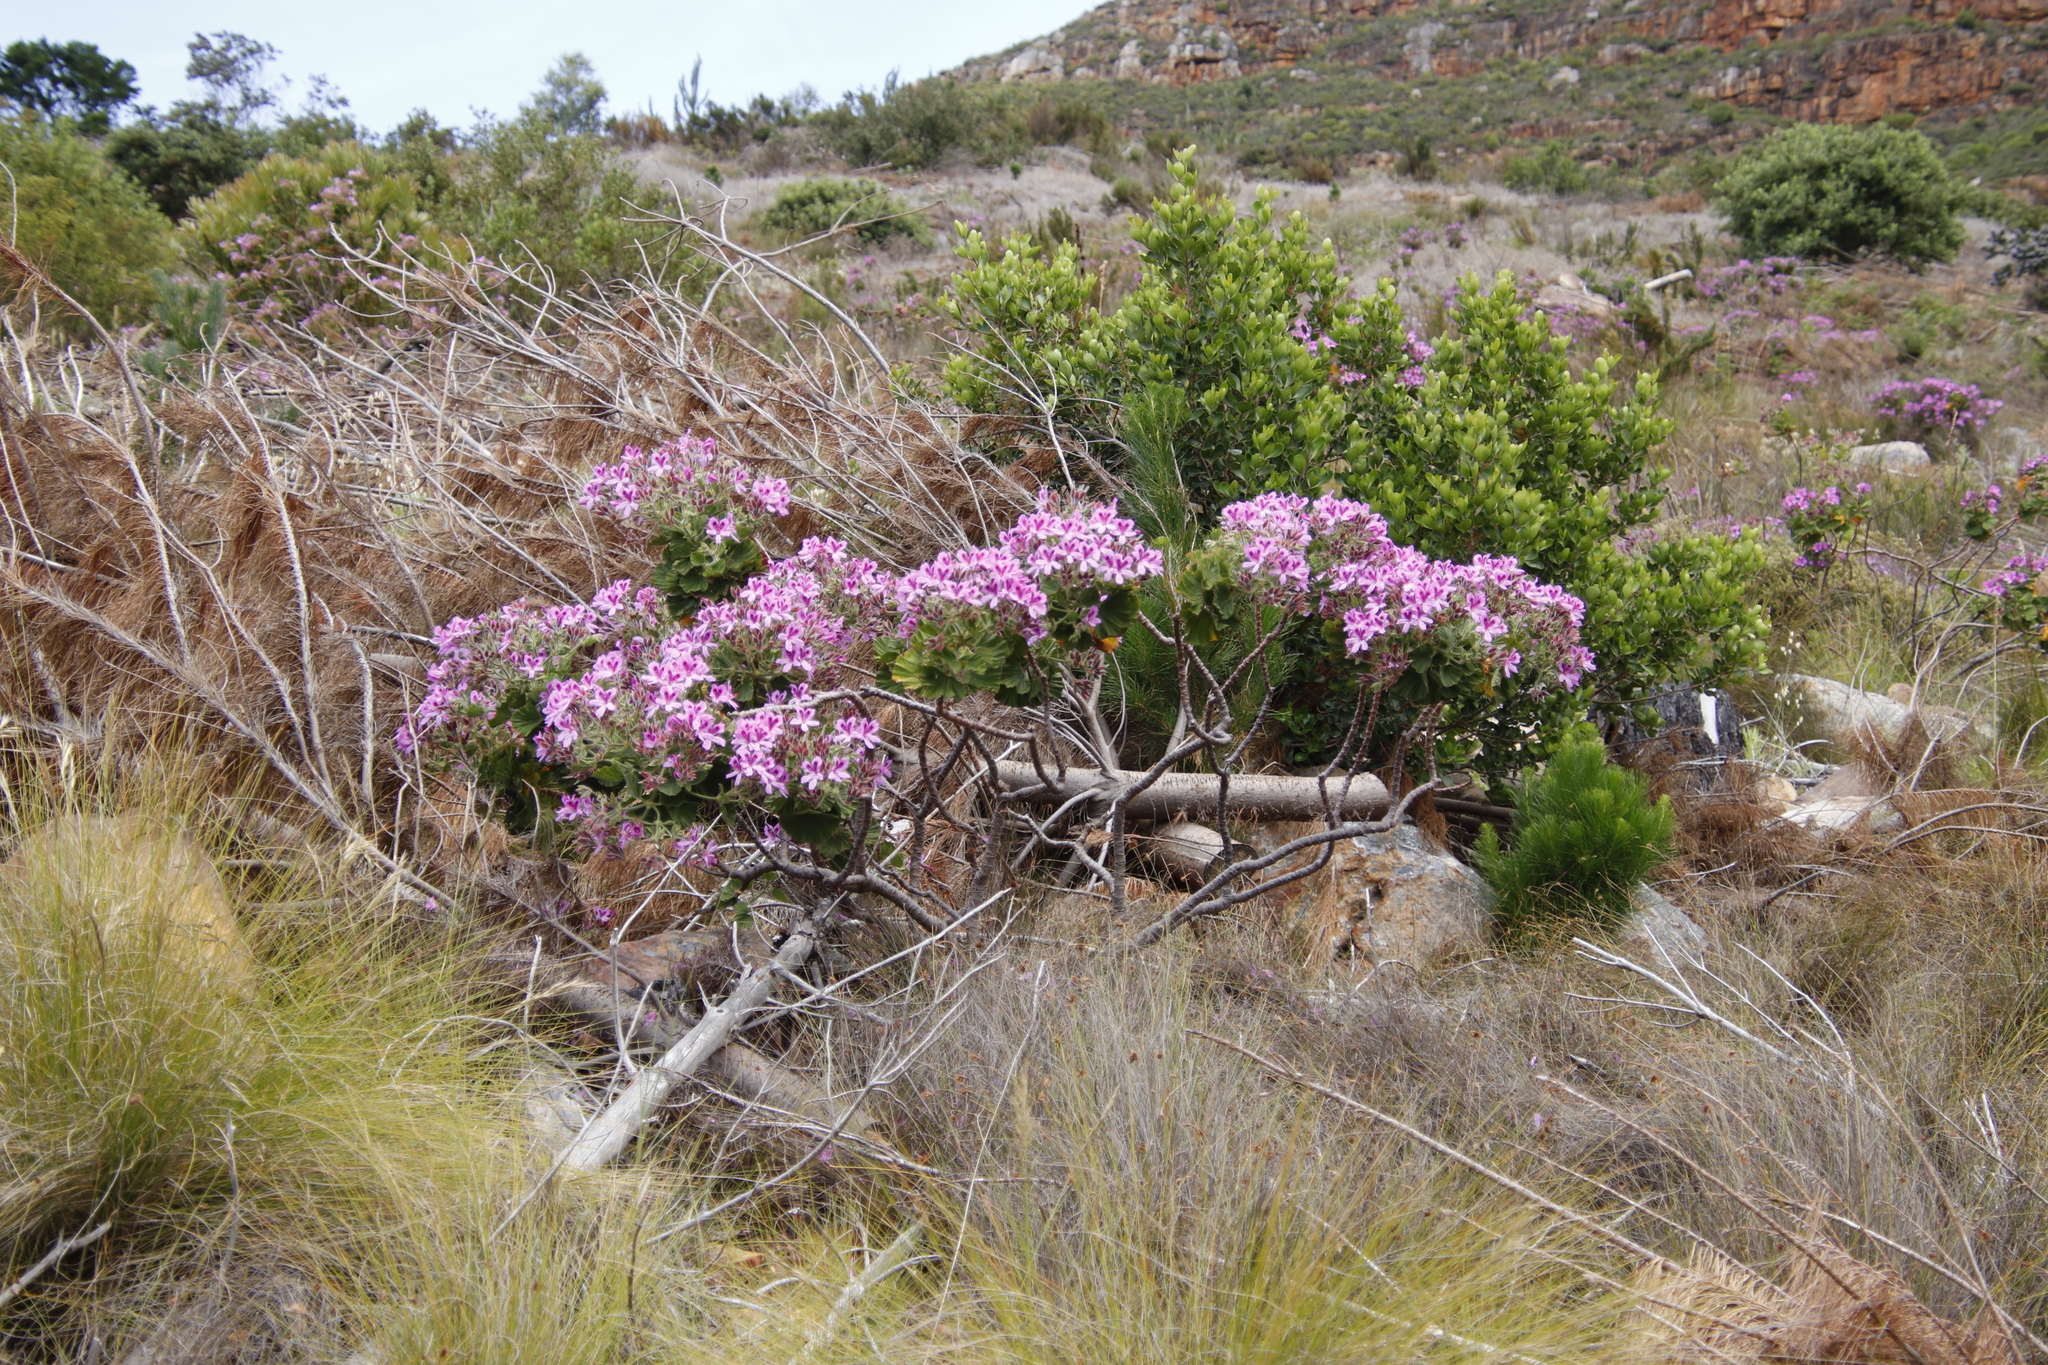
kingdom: Plantae
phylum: Tracheophyta
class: Magnoliopsida
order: Geraniales
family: Geraniaceae
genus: Pelargonium
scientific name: Pelargonium cucullatum
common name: Tree pelargonium
